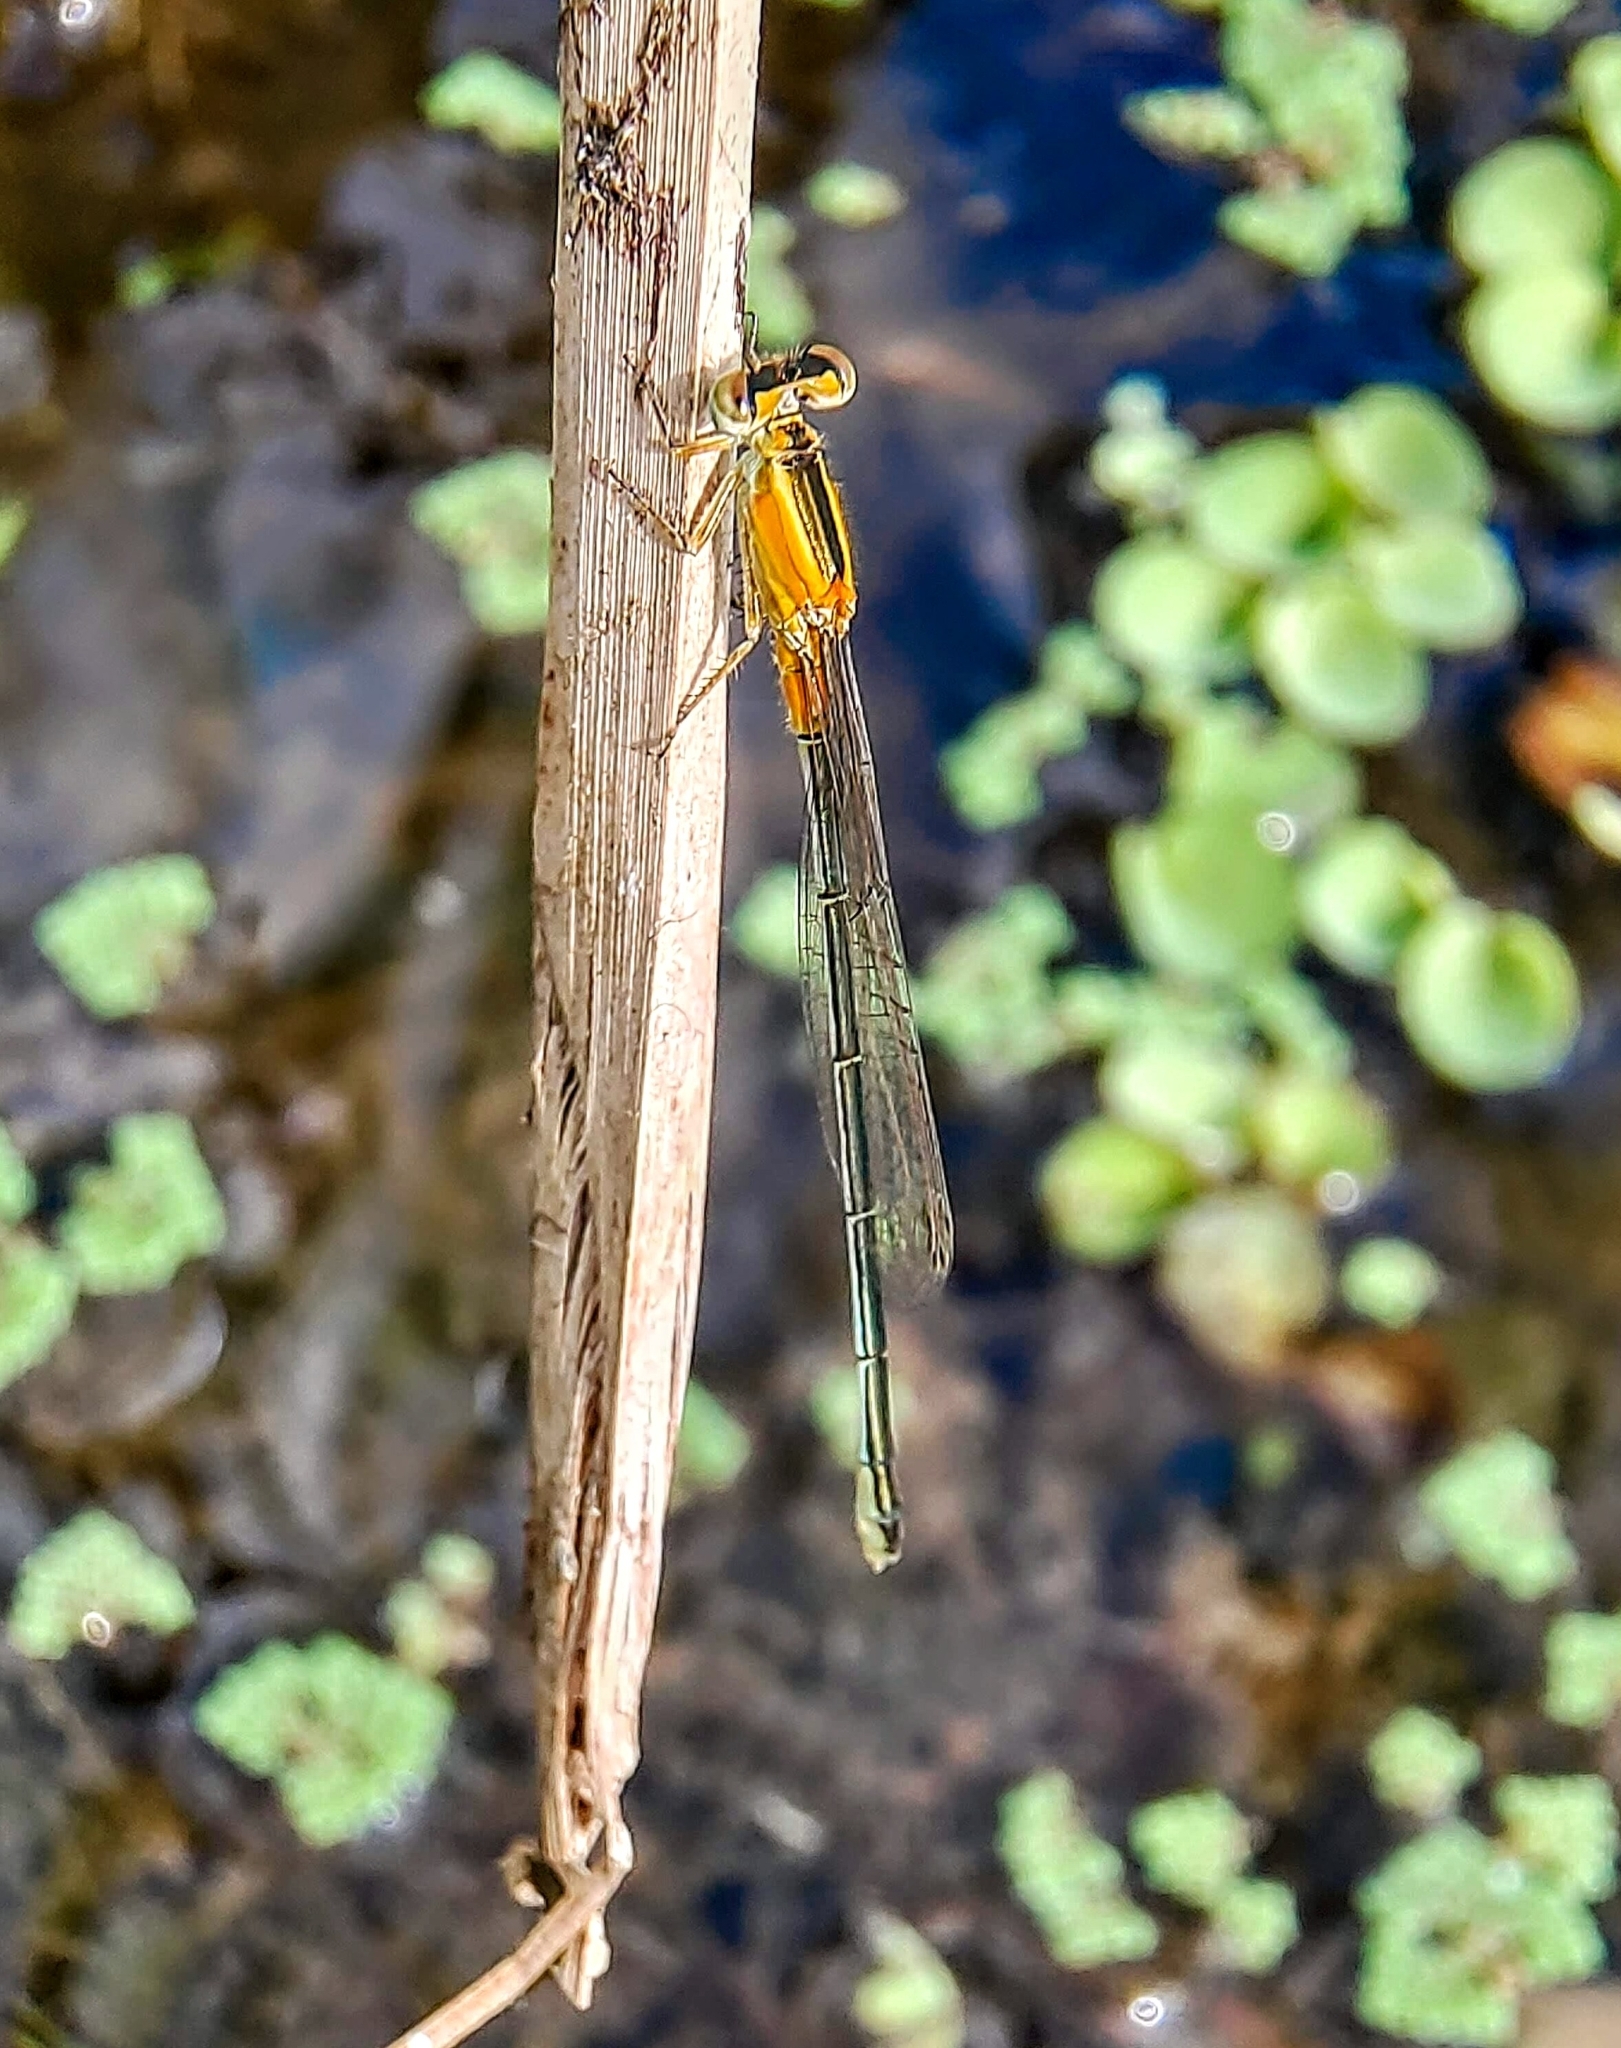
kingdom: Animalia
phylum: Arthropoda
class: Insecta
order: Odonata
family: Coenagrionidae
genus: Ischnura
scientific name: Ischnura senegalensis
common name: Tropical bluetail
